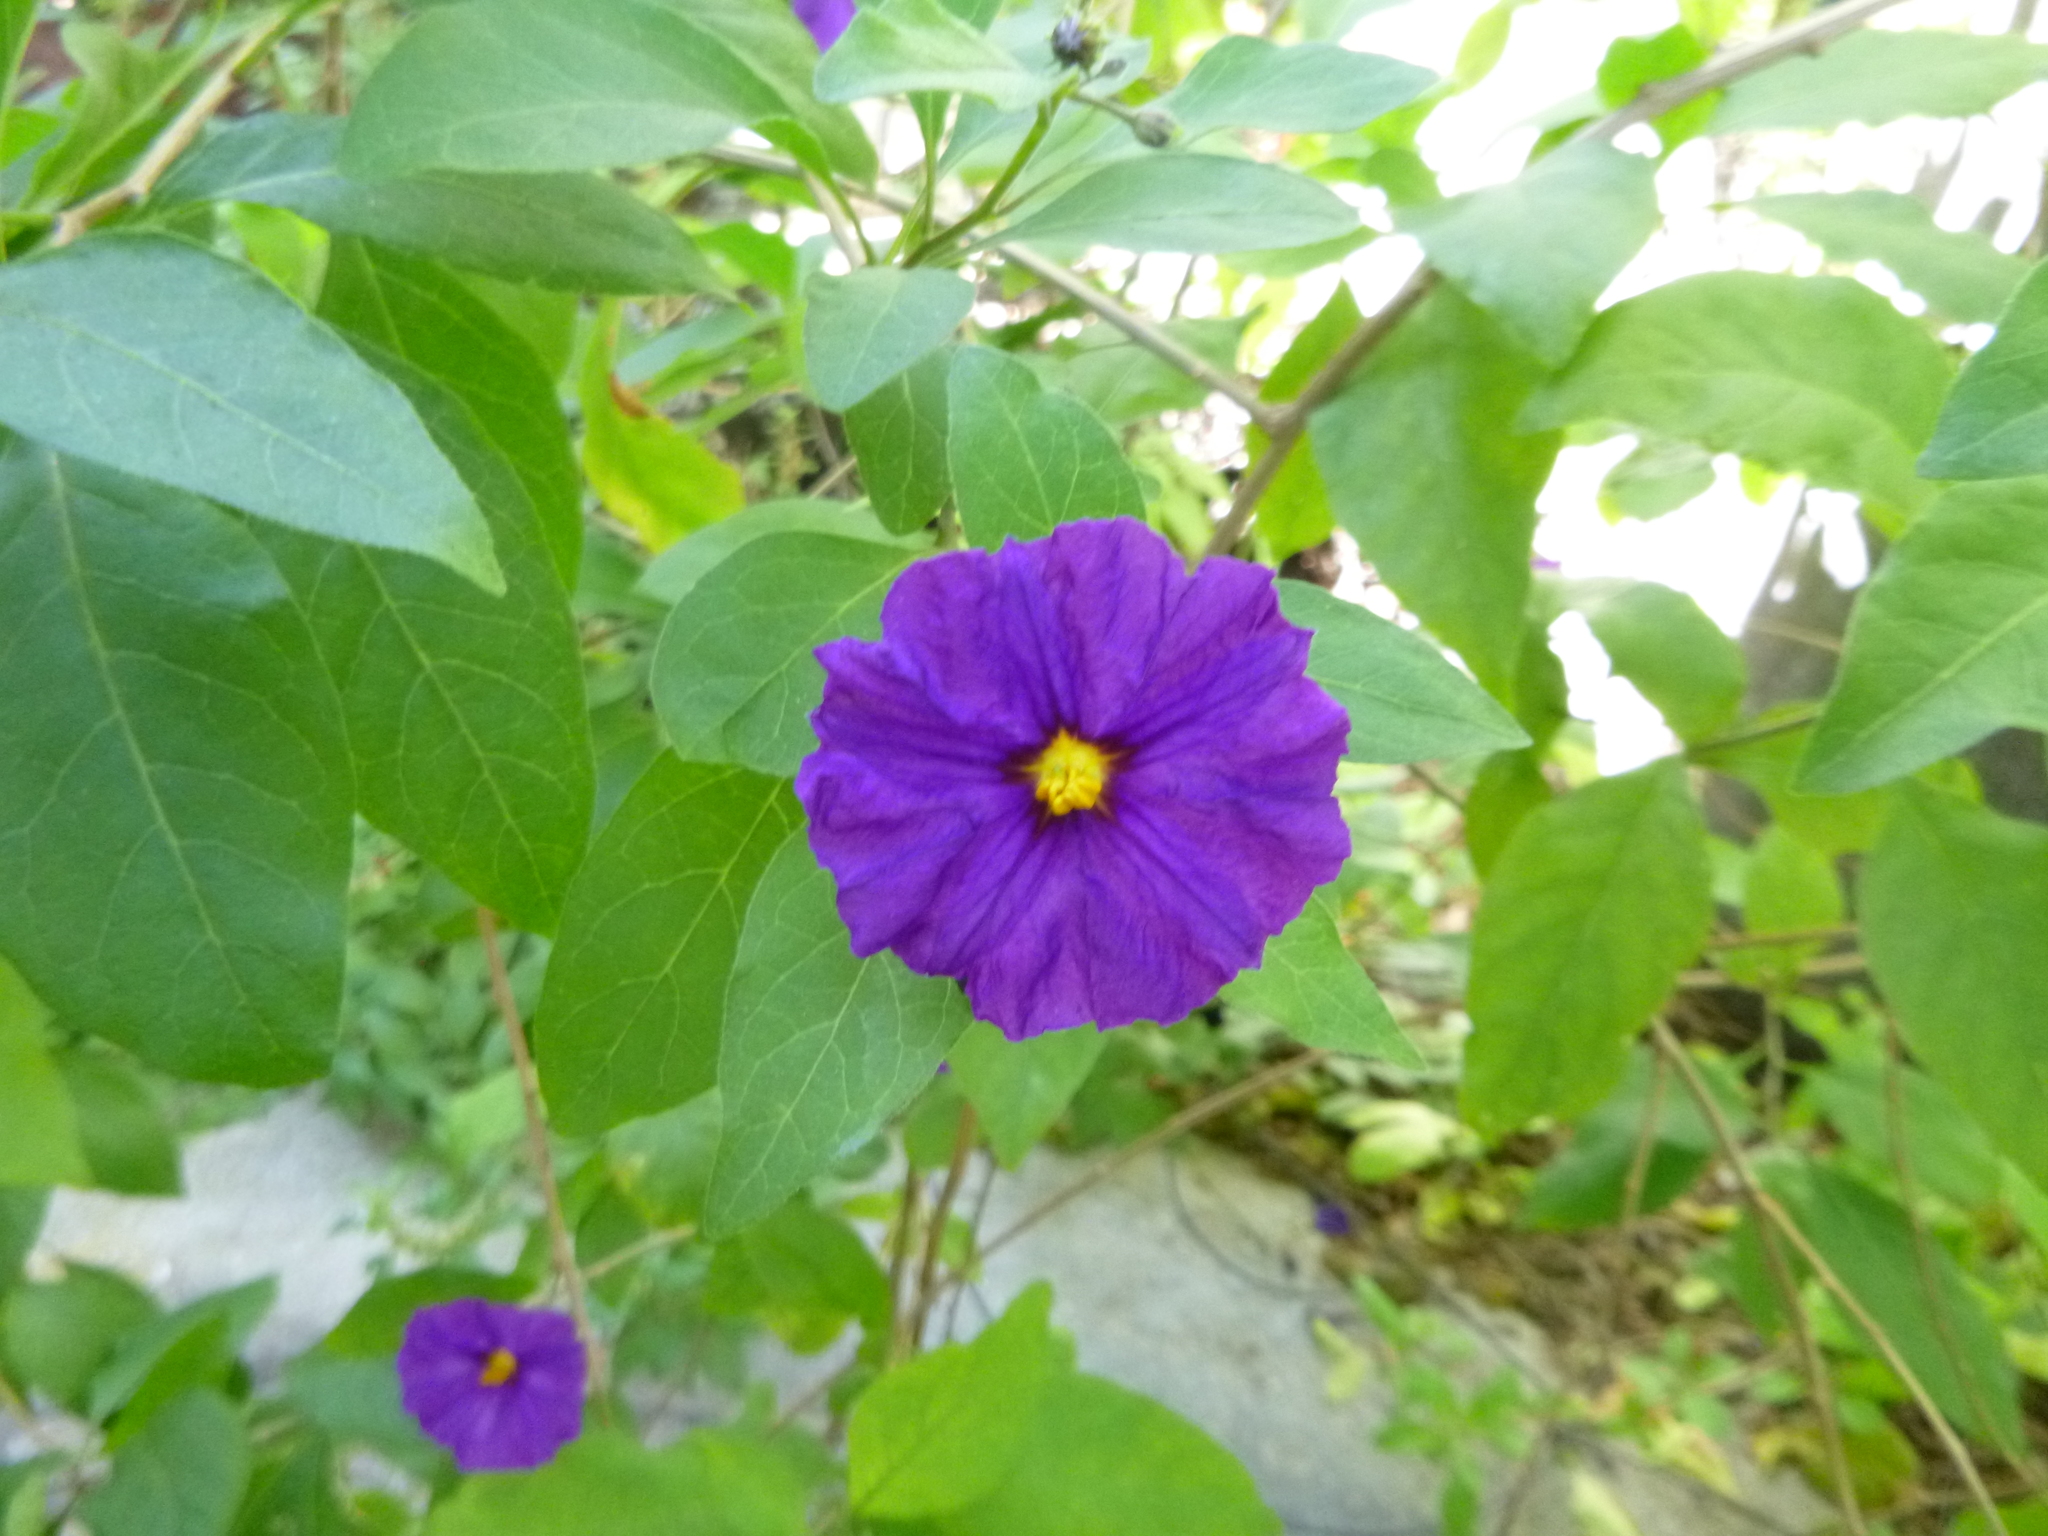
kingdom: Plantae
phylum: Tracheophyta
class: Magnoliopsida
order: Solanales
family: Solanaceae
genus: Lycianthes
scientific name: Lycianthes rantonnetii
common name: Blue potatobush
